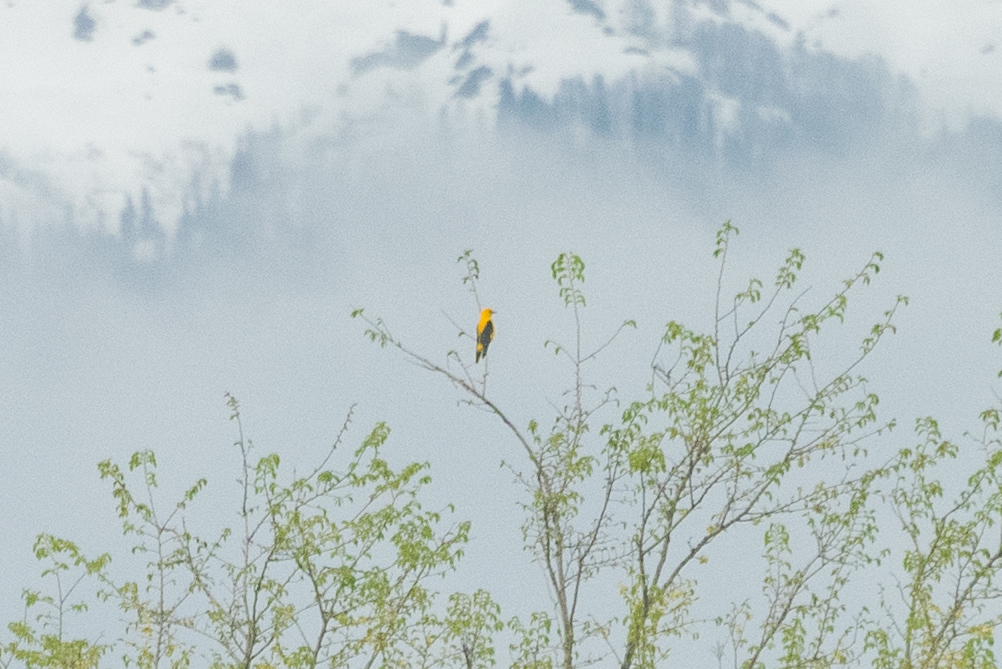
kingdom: Animalia
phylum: Chordata
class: Aves
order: Passeriformes
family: Oriolidae
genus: Oriolus
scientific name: Oriolus oriolus
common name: Eurasian golden oriole
